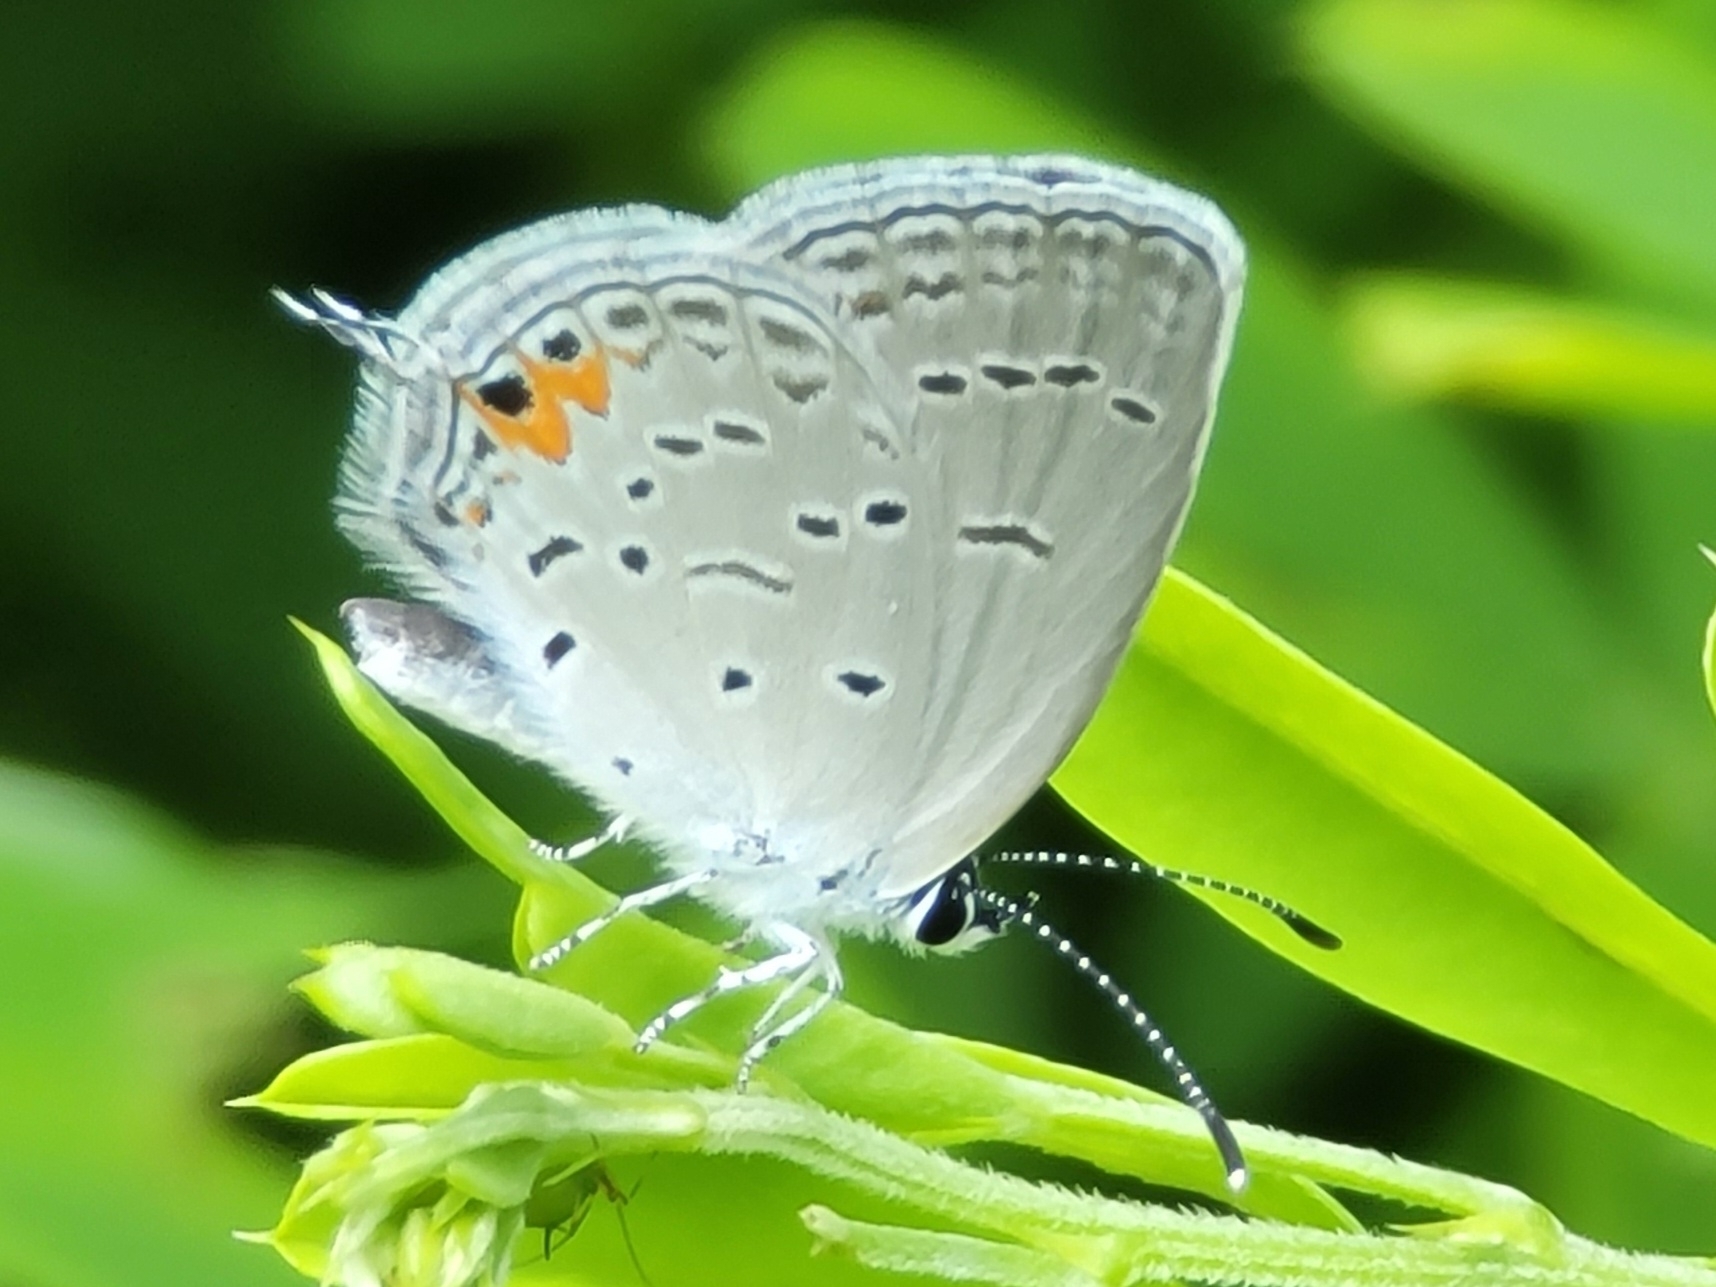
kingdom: Animalia
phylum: Arthropoda
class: Insecta
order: Lepidoptera
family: Lycaenidae
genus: Elkalyce
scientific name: Elkalyce comyntas
